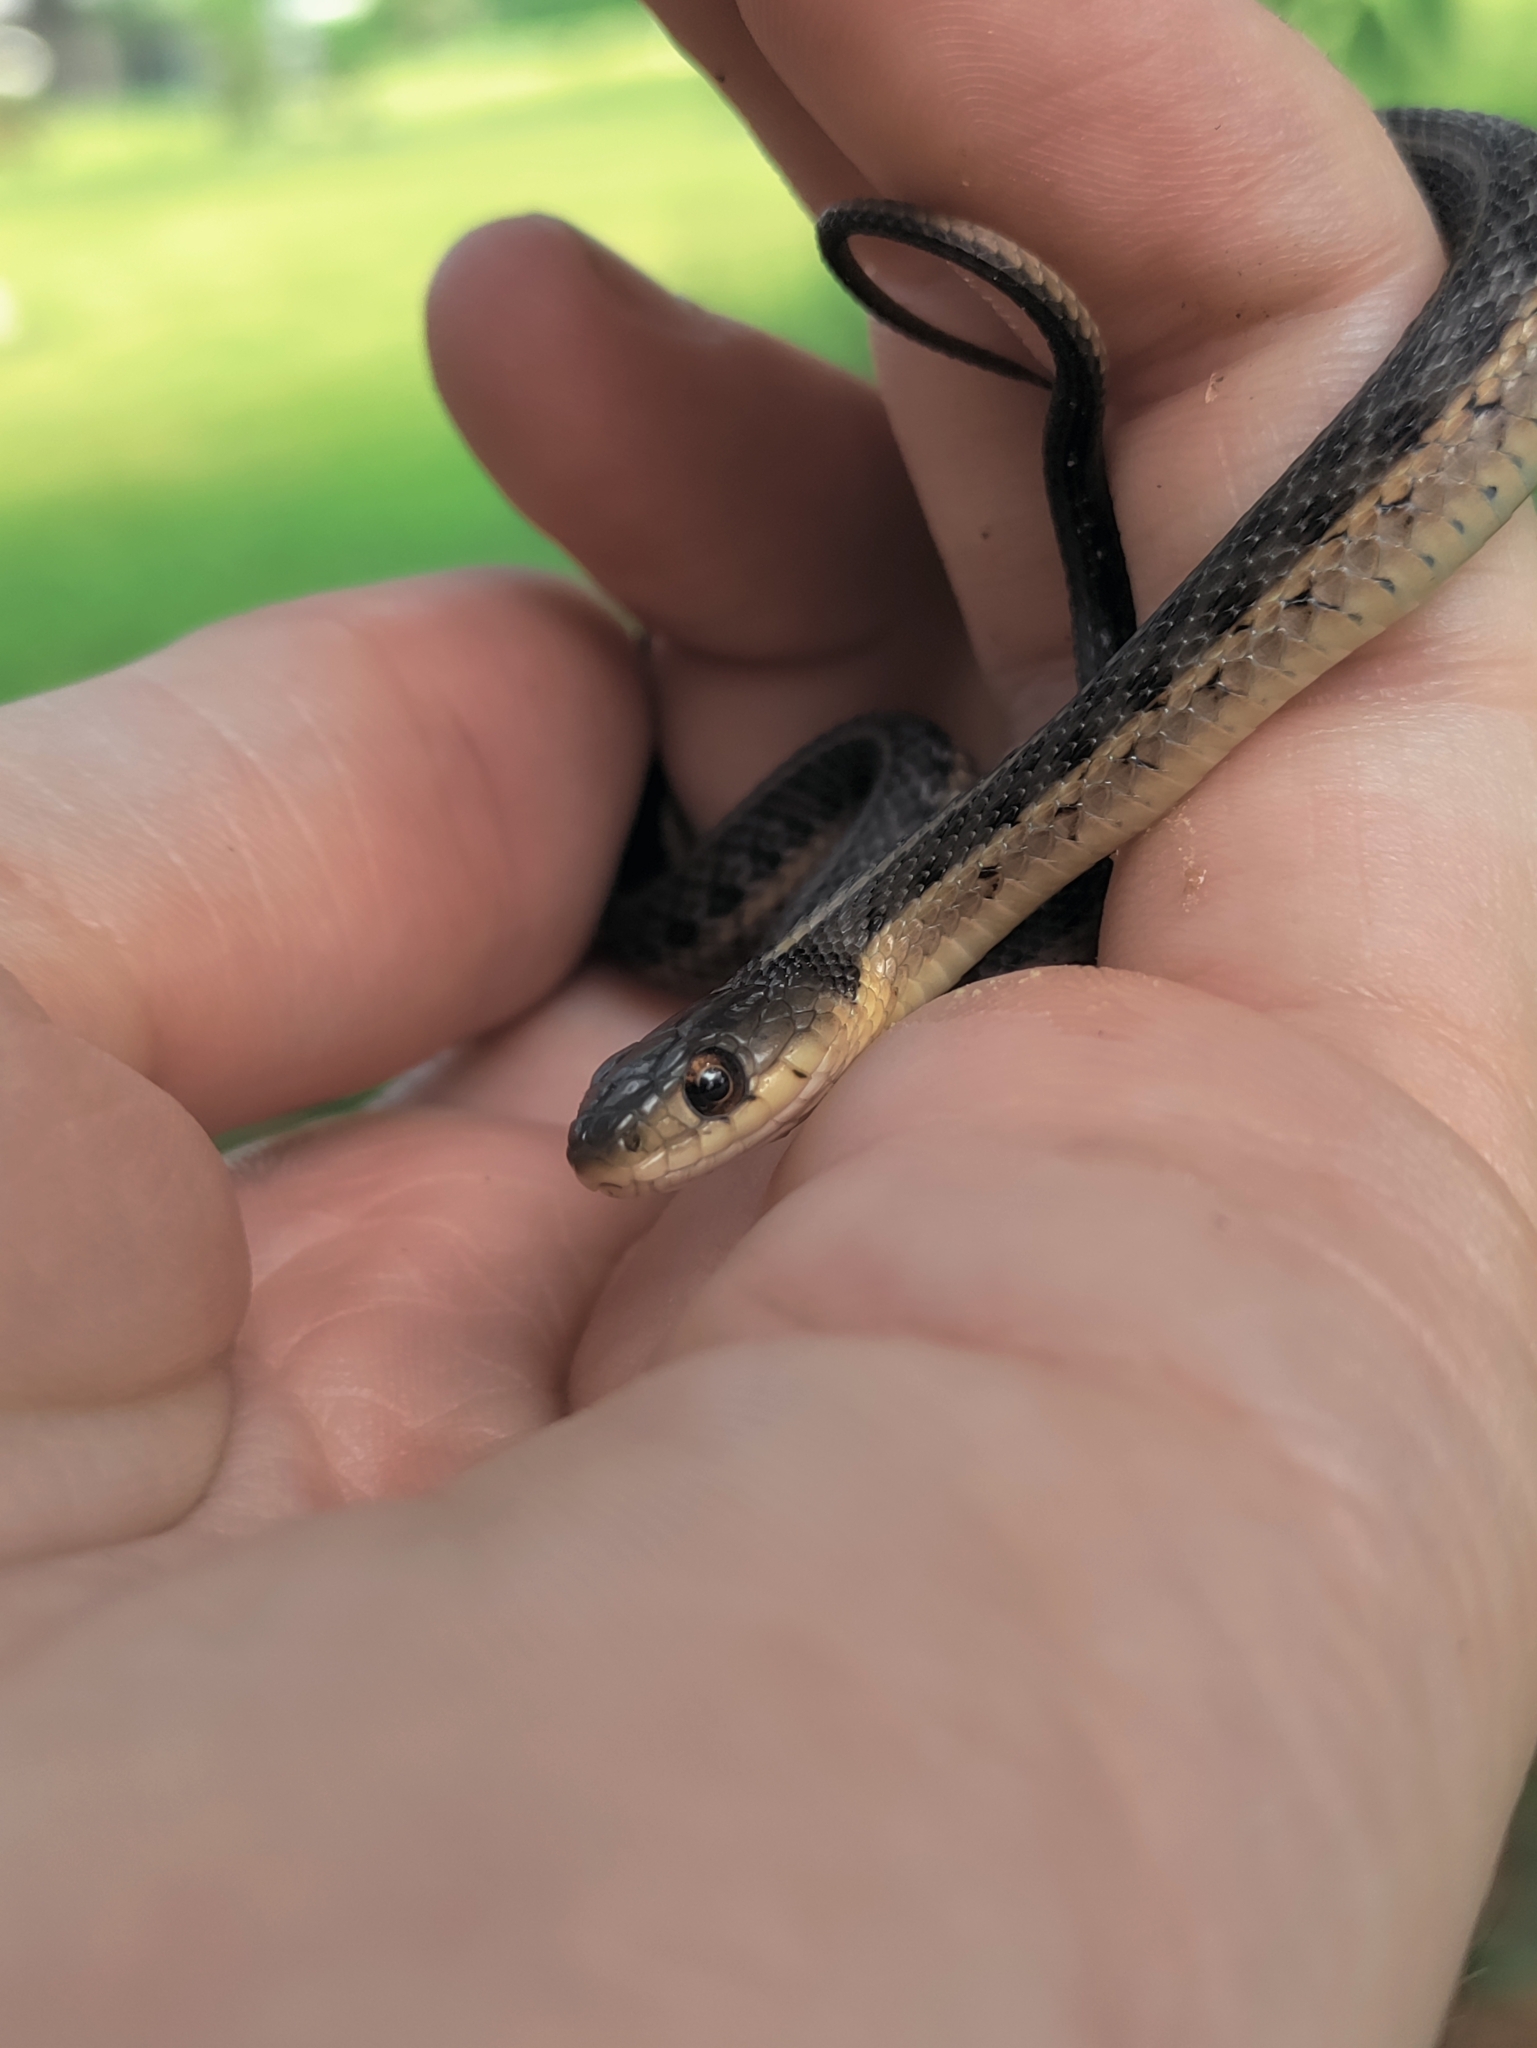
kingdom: Animalia
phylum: Chordata
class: Squamata
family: Colubridae
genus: Thamnophis
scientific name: Thamnophis sirtalis
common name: Common garter snake
